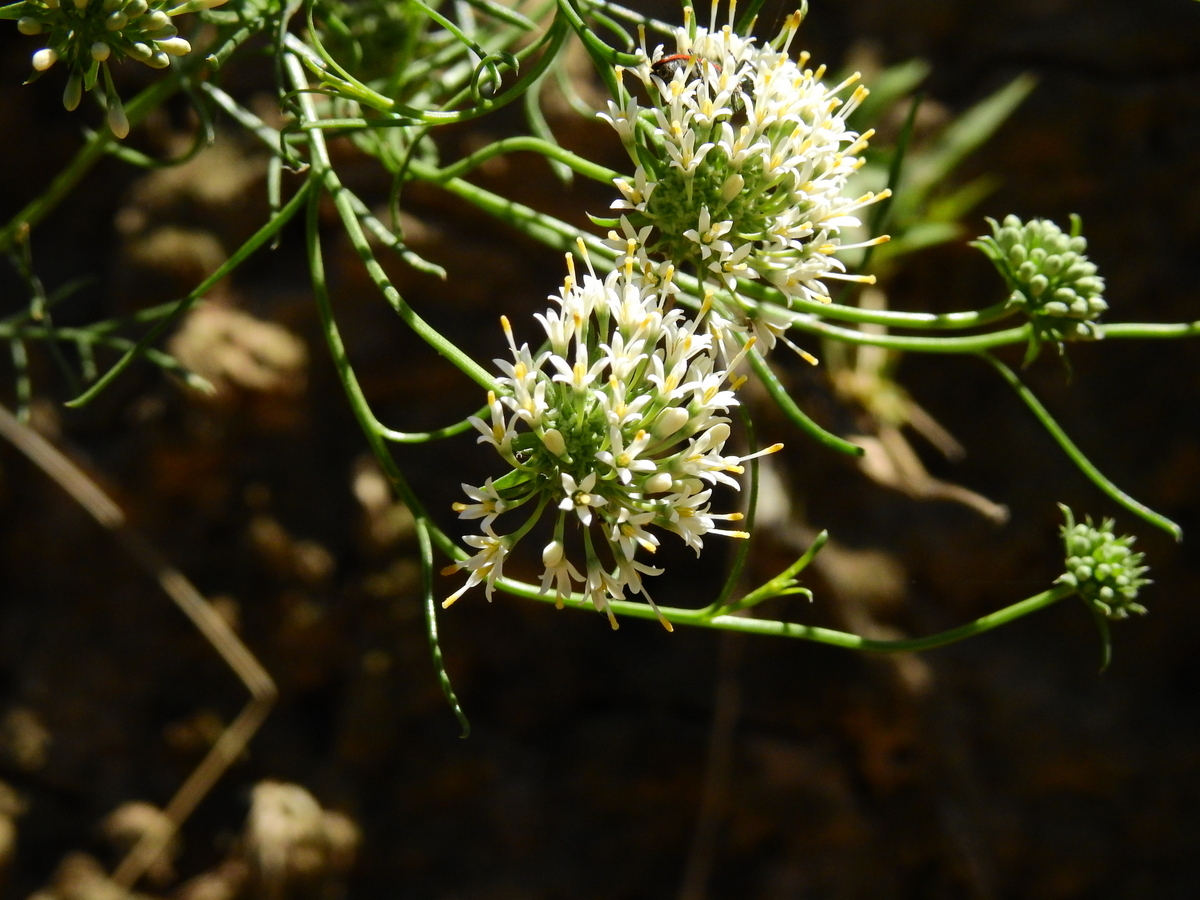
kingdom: Plantae
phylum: Tracheophyta
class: Magnoliopsida
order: Asterales
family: Calyceraceae
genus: Boopis
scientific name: Boopis anthemoides
